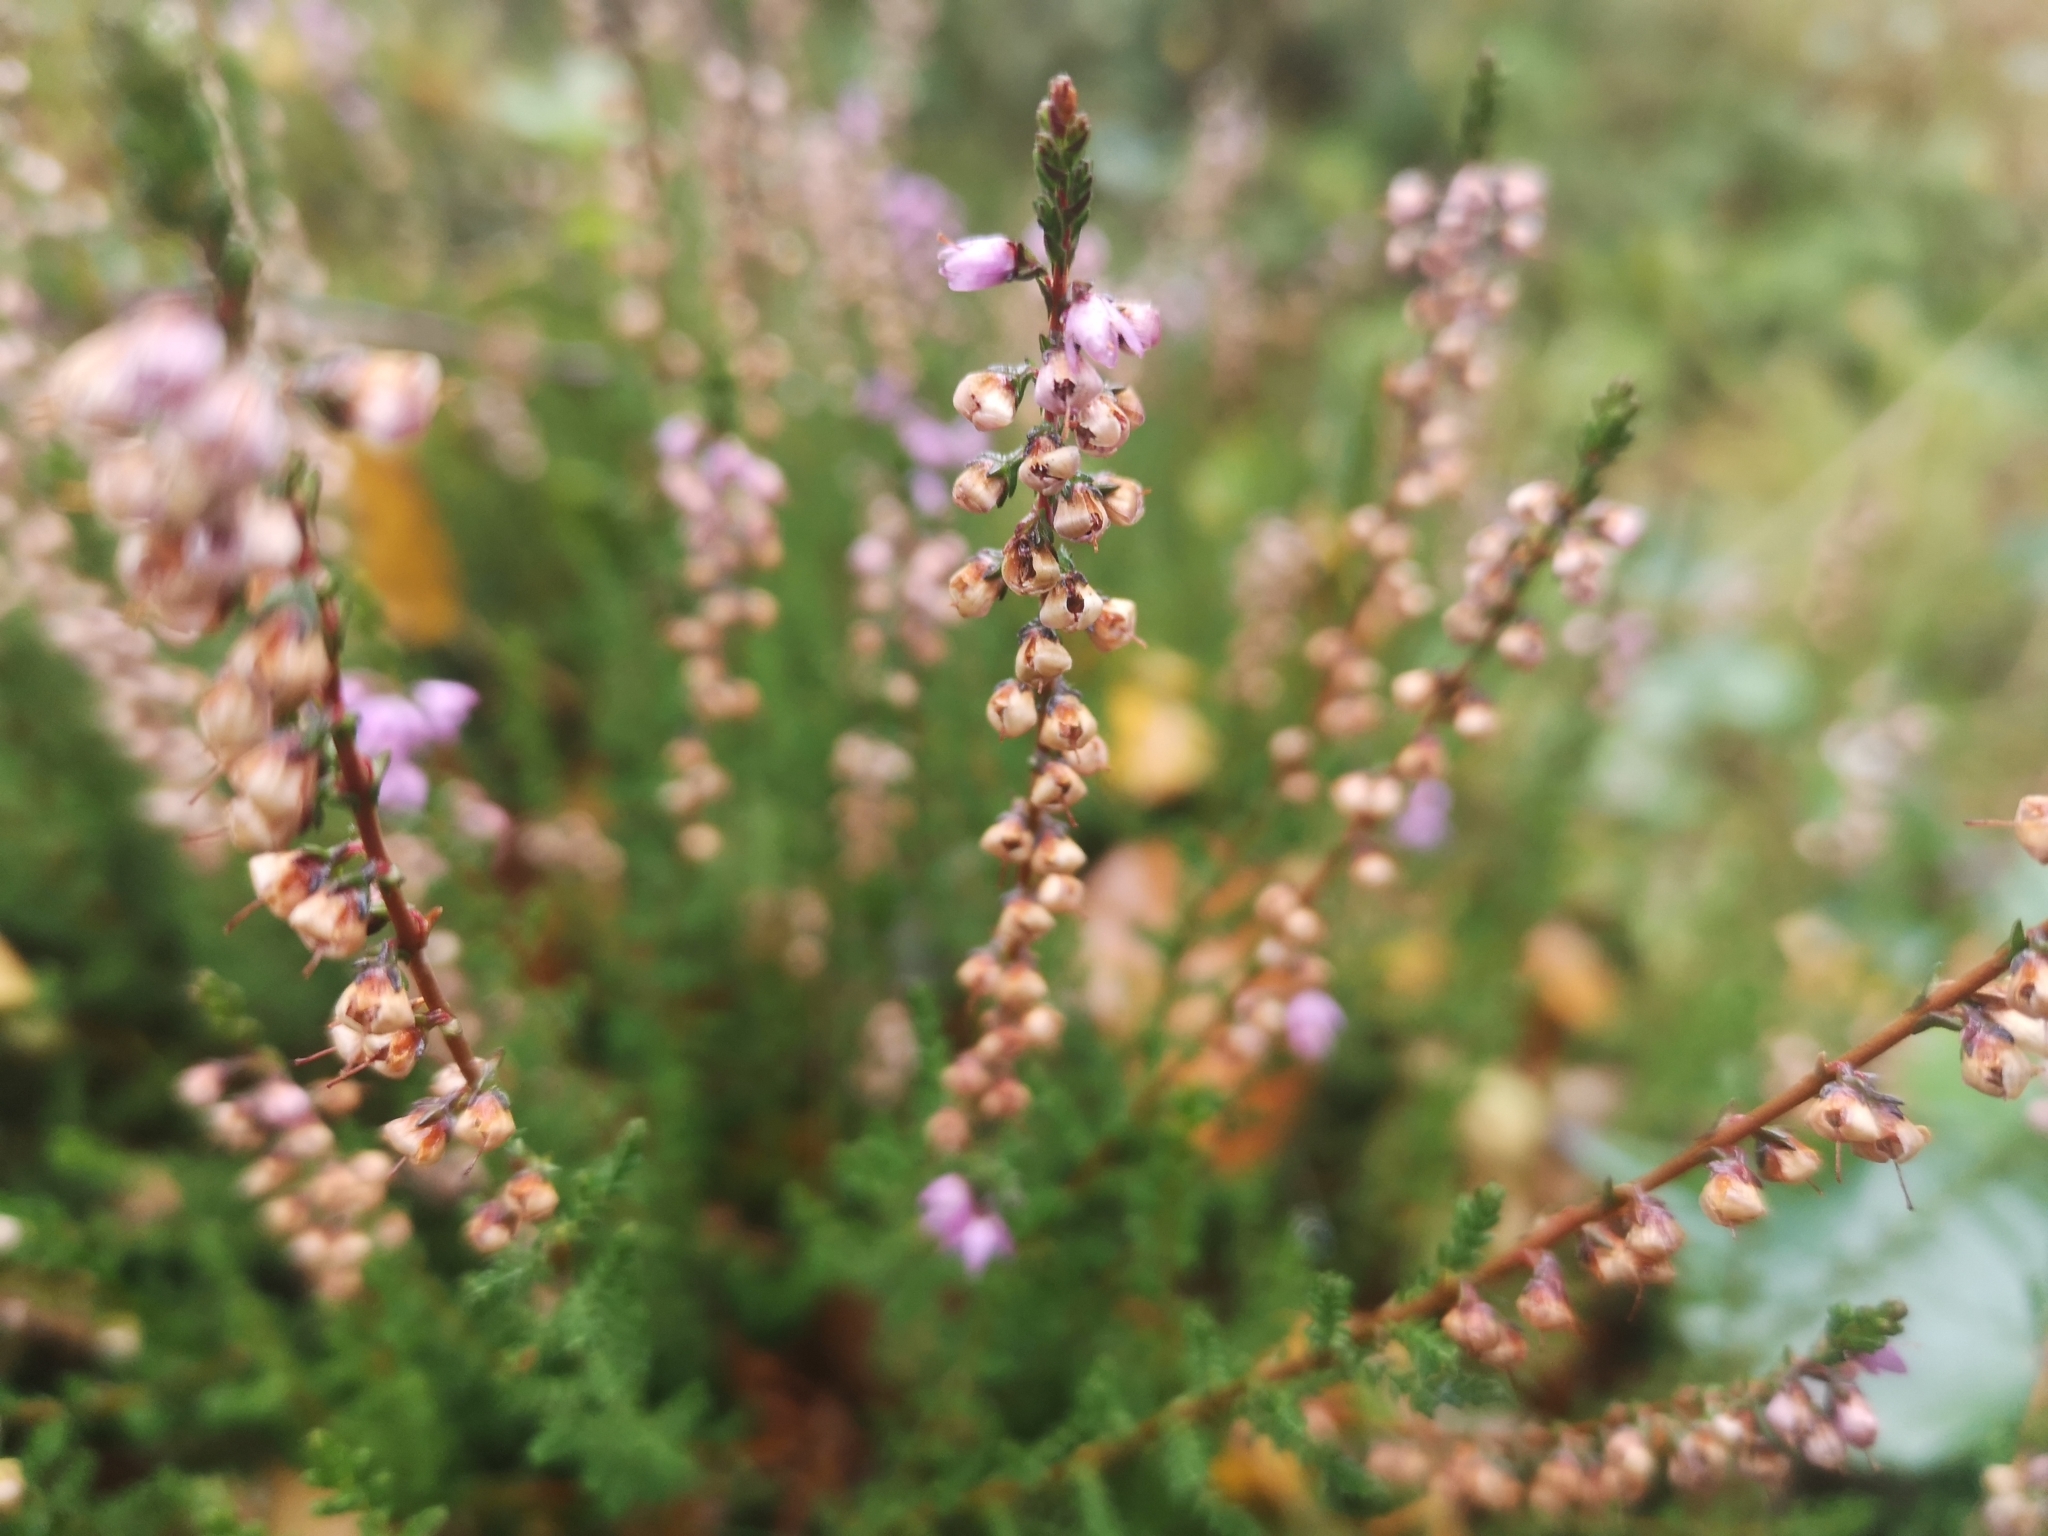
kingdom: Plantae
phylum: Tracheophyta
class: Magnoliopsida
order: Ericales
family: Ericaceae
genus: Calluna
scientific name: Calluna vulgaris
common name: Heather
